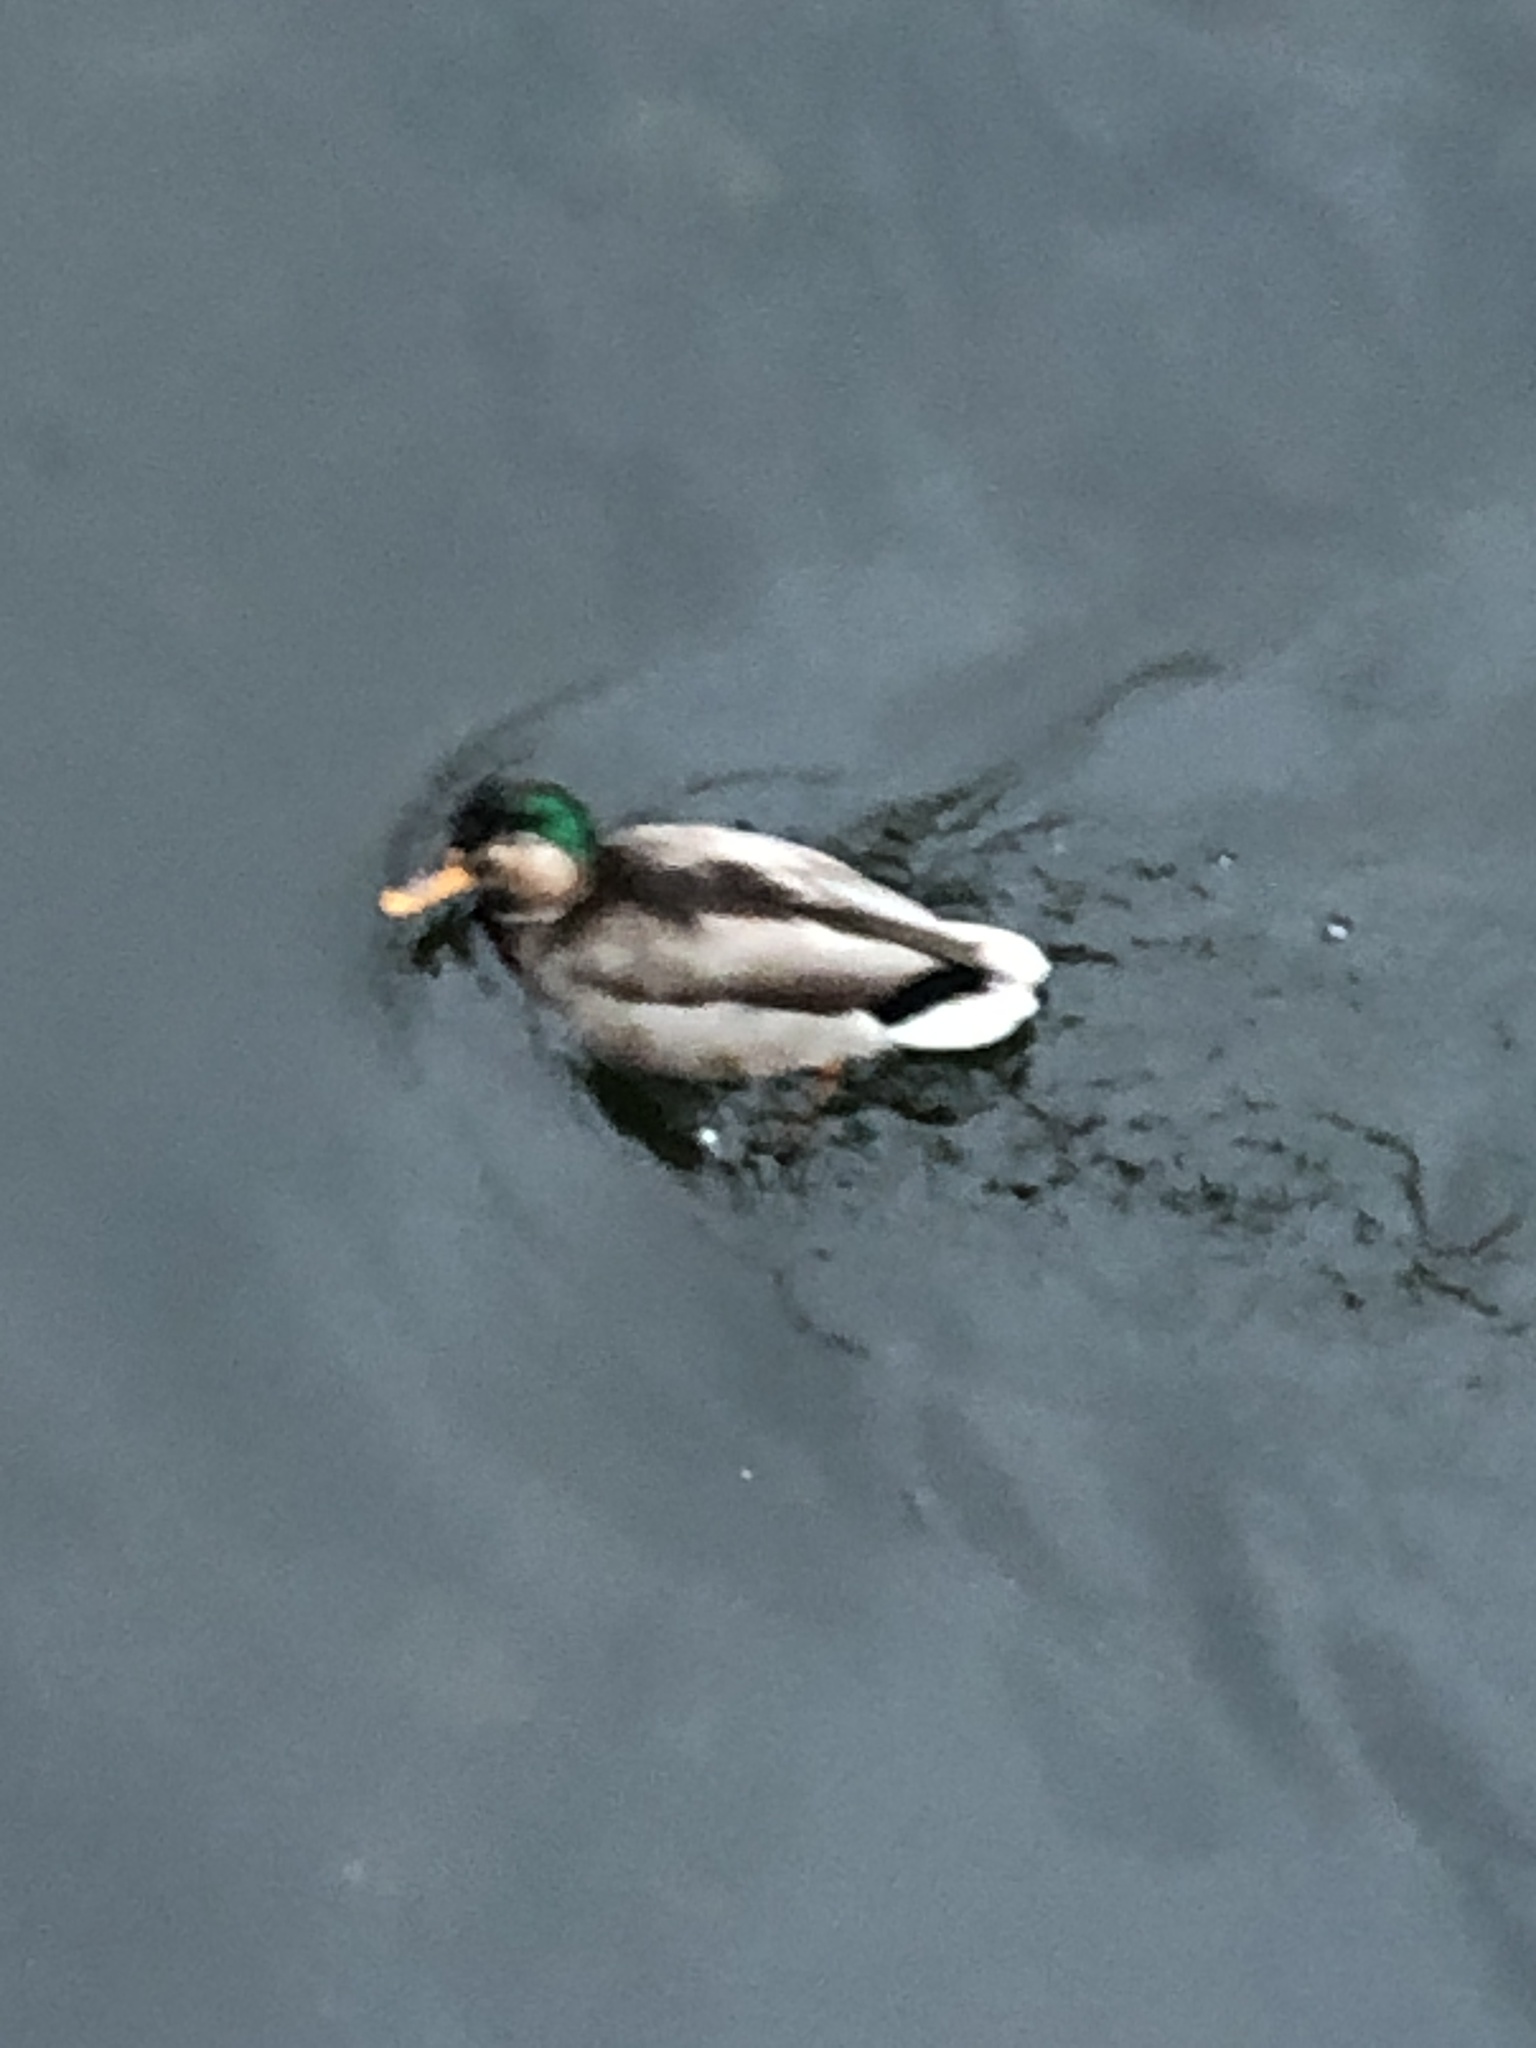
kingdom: Animalia
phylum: Chordata
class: Aves
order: Anseriformes
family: Anatidae
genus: Anas
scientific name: Anas platyrhynchos
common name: Mallard
